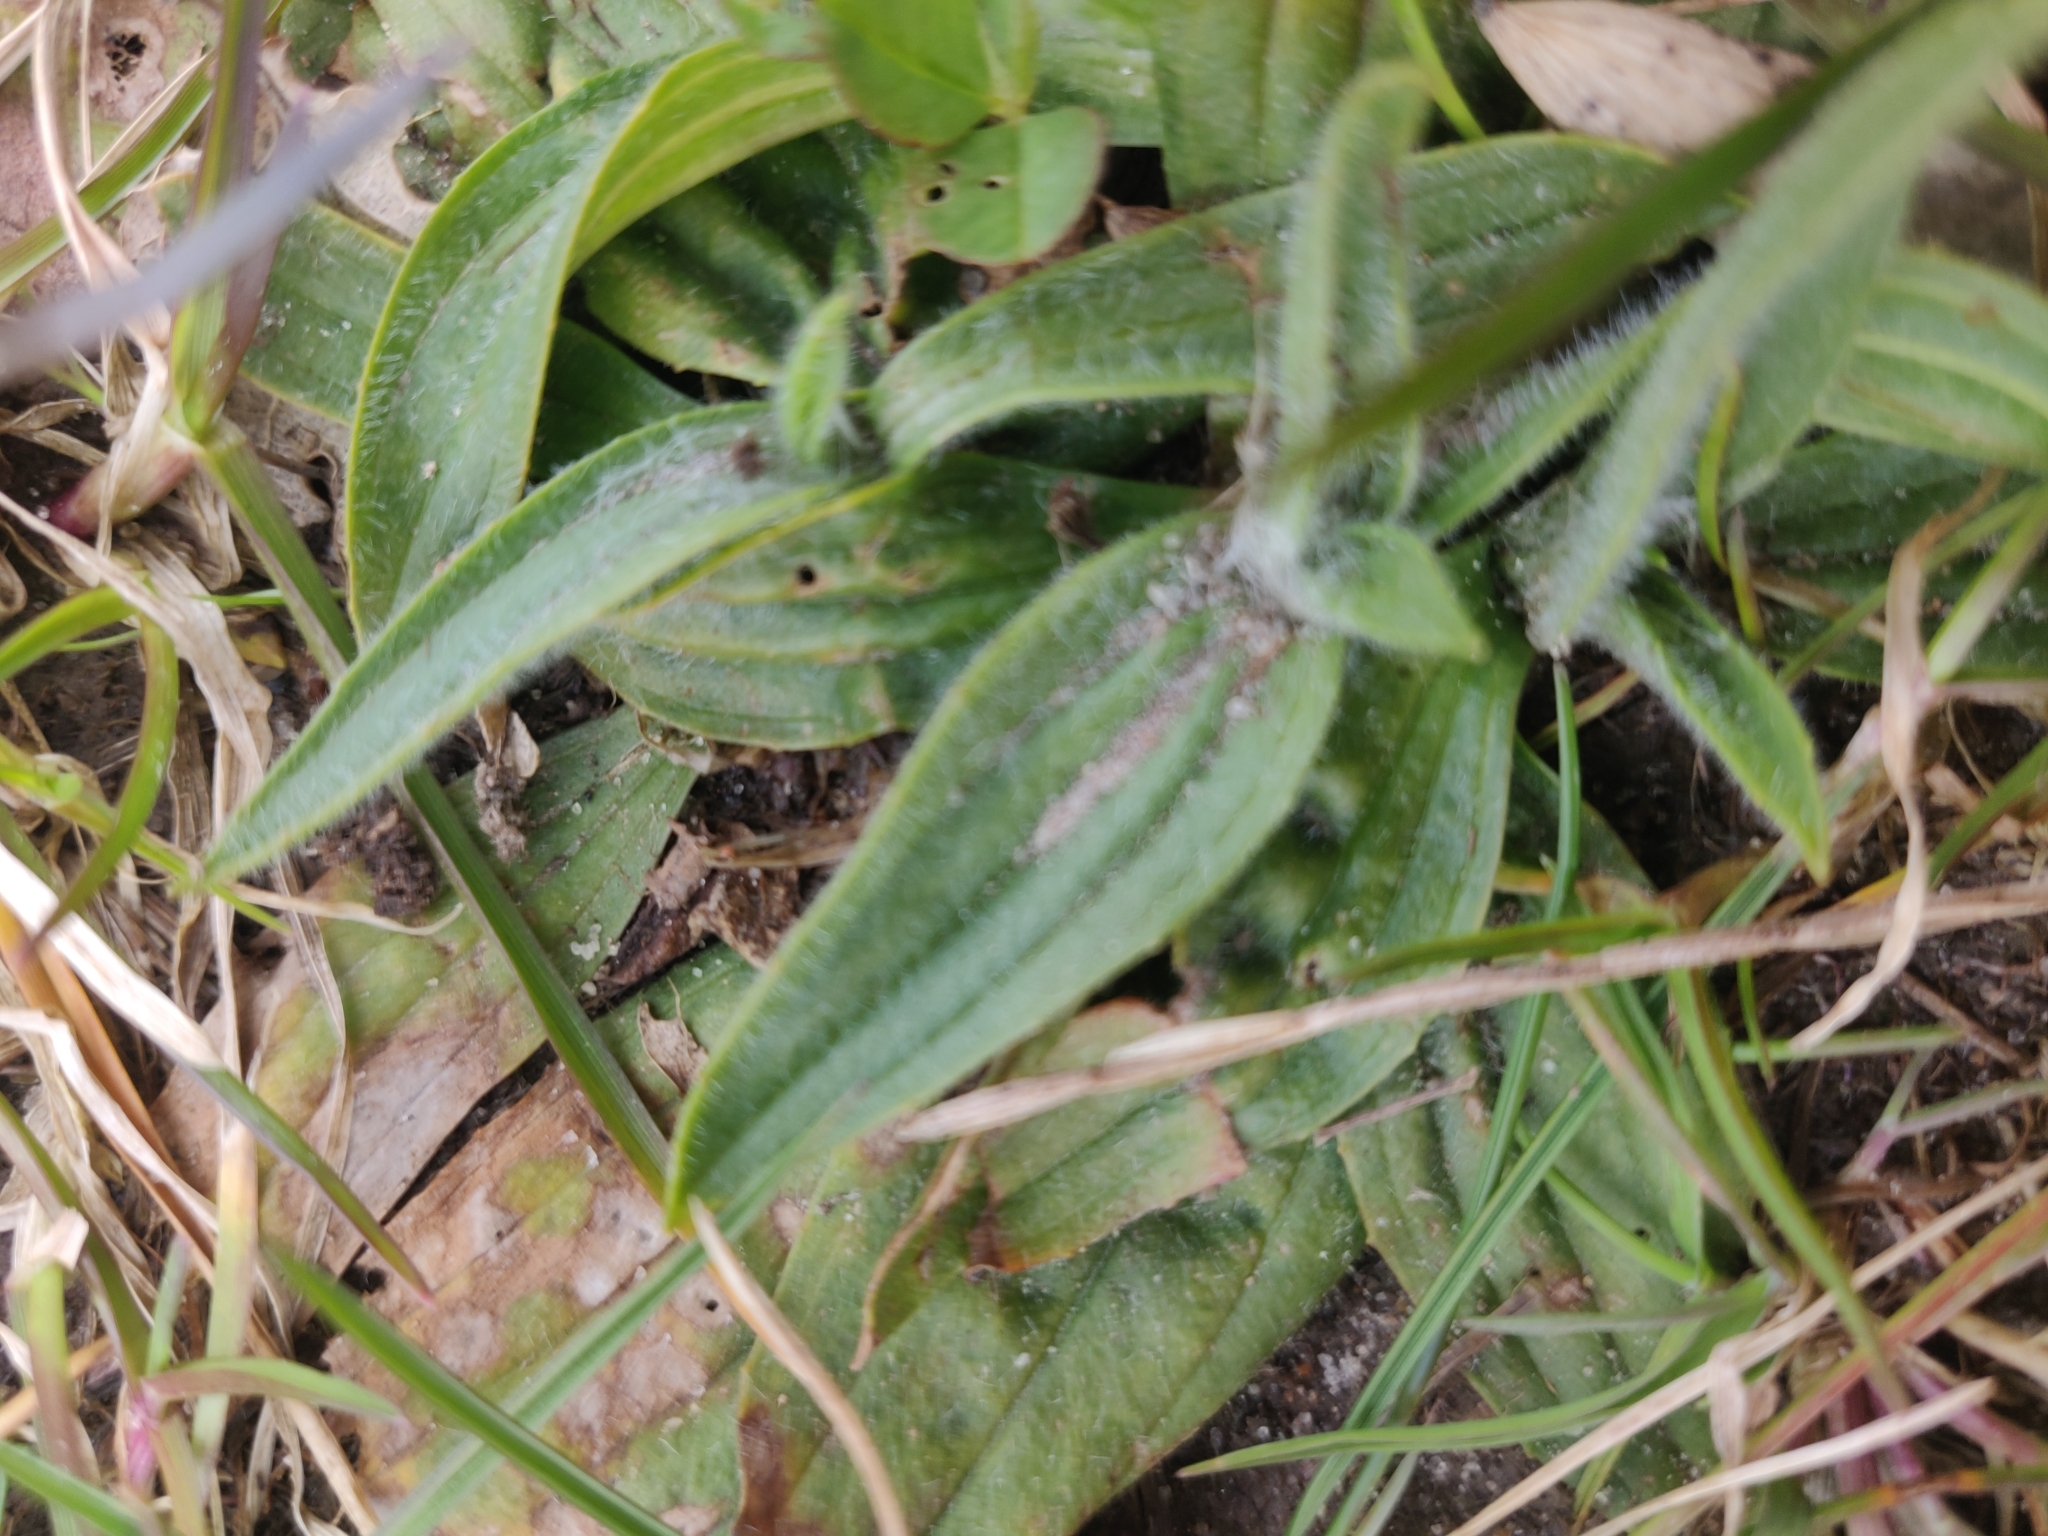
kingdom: Plantae
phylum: Tracheophyta
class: Magnoliopsida
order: Lamiales
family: Plantaginaceae
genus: Plantago
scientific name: Plantago lanceolata
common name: Ribwort plantain
